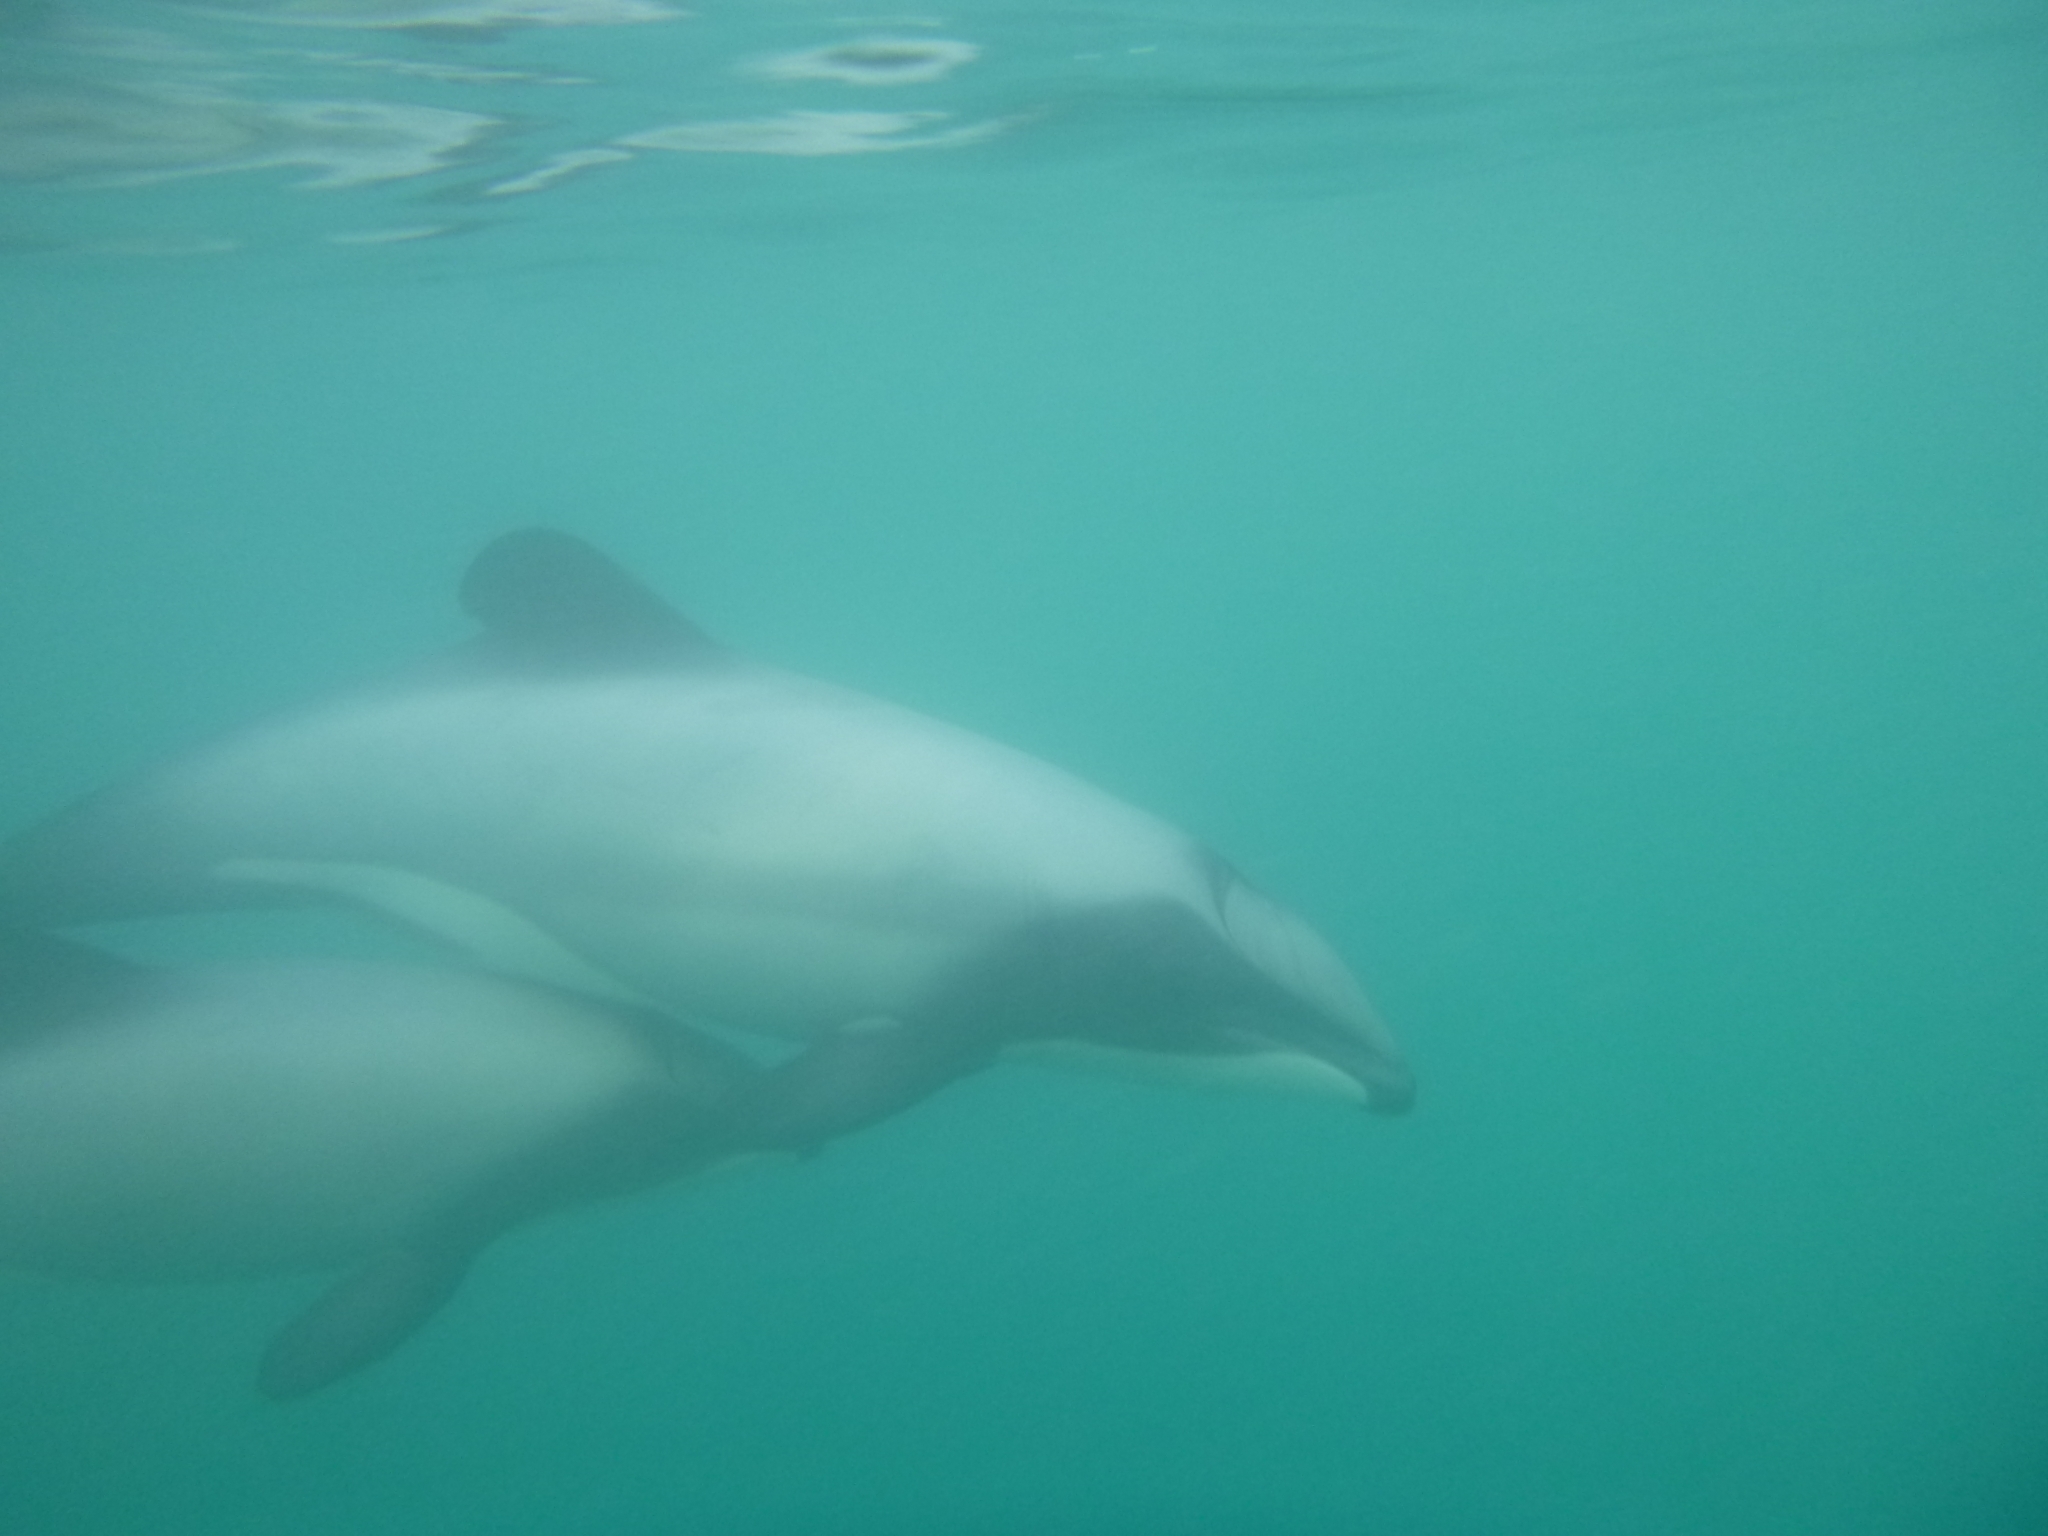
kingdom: Animalia
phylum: Chordata
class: Mammalia
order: Cetacea
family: Delphinidae
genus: Cephalorhynchus
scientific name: Cephalorhynchus hectori
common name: Hector's dolphin
